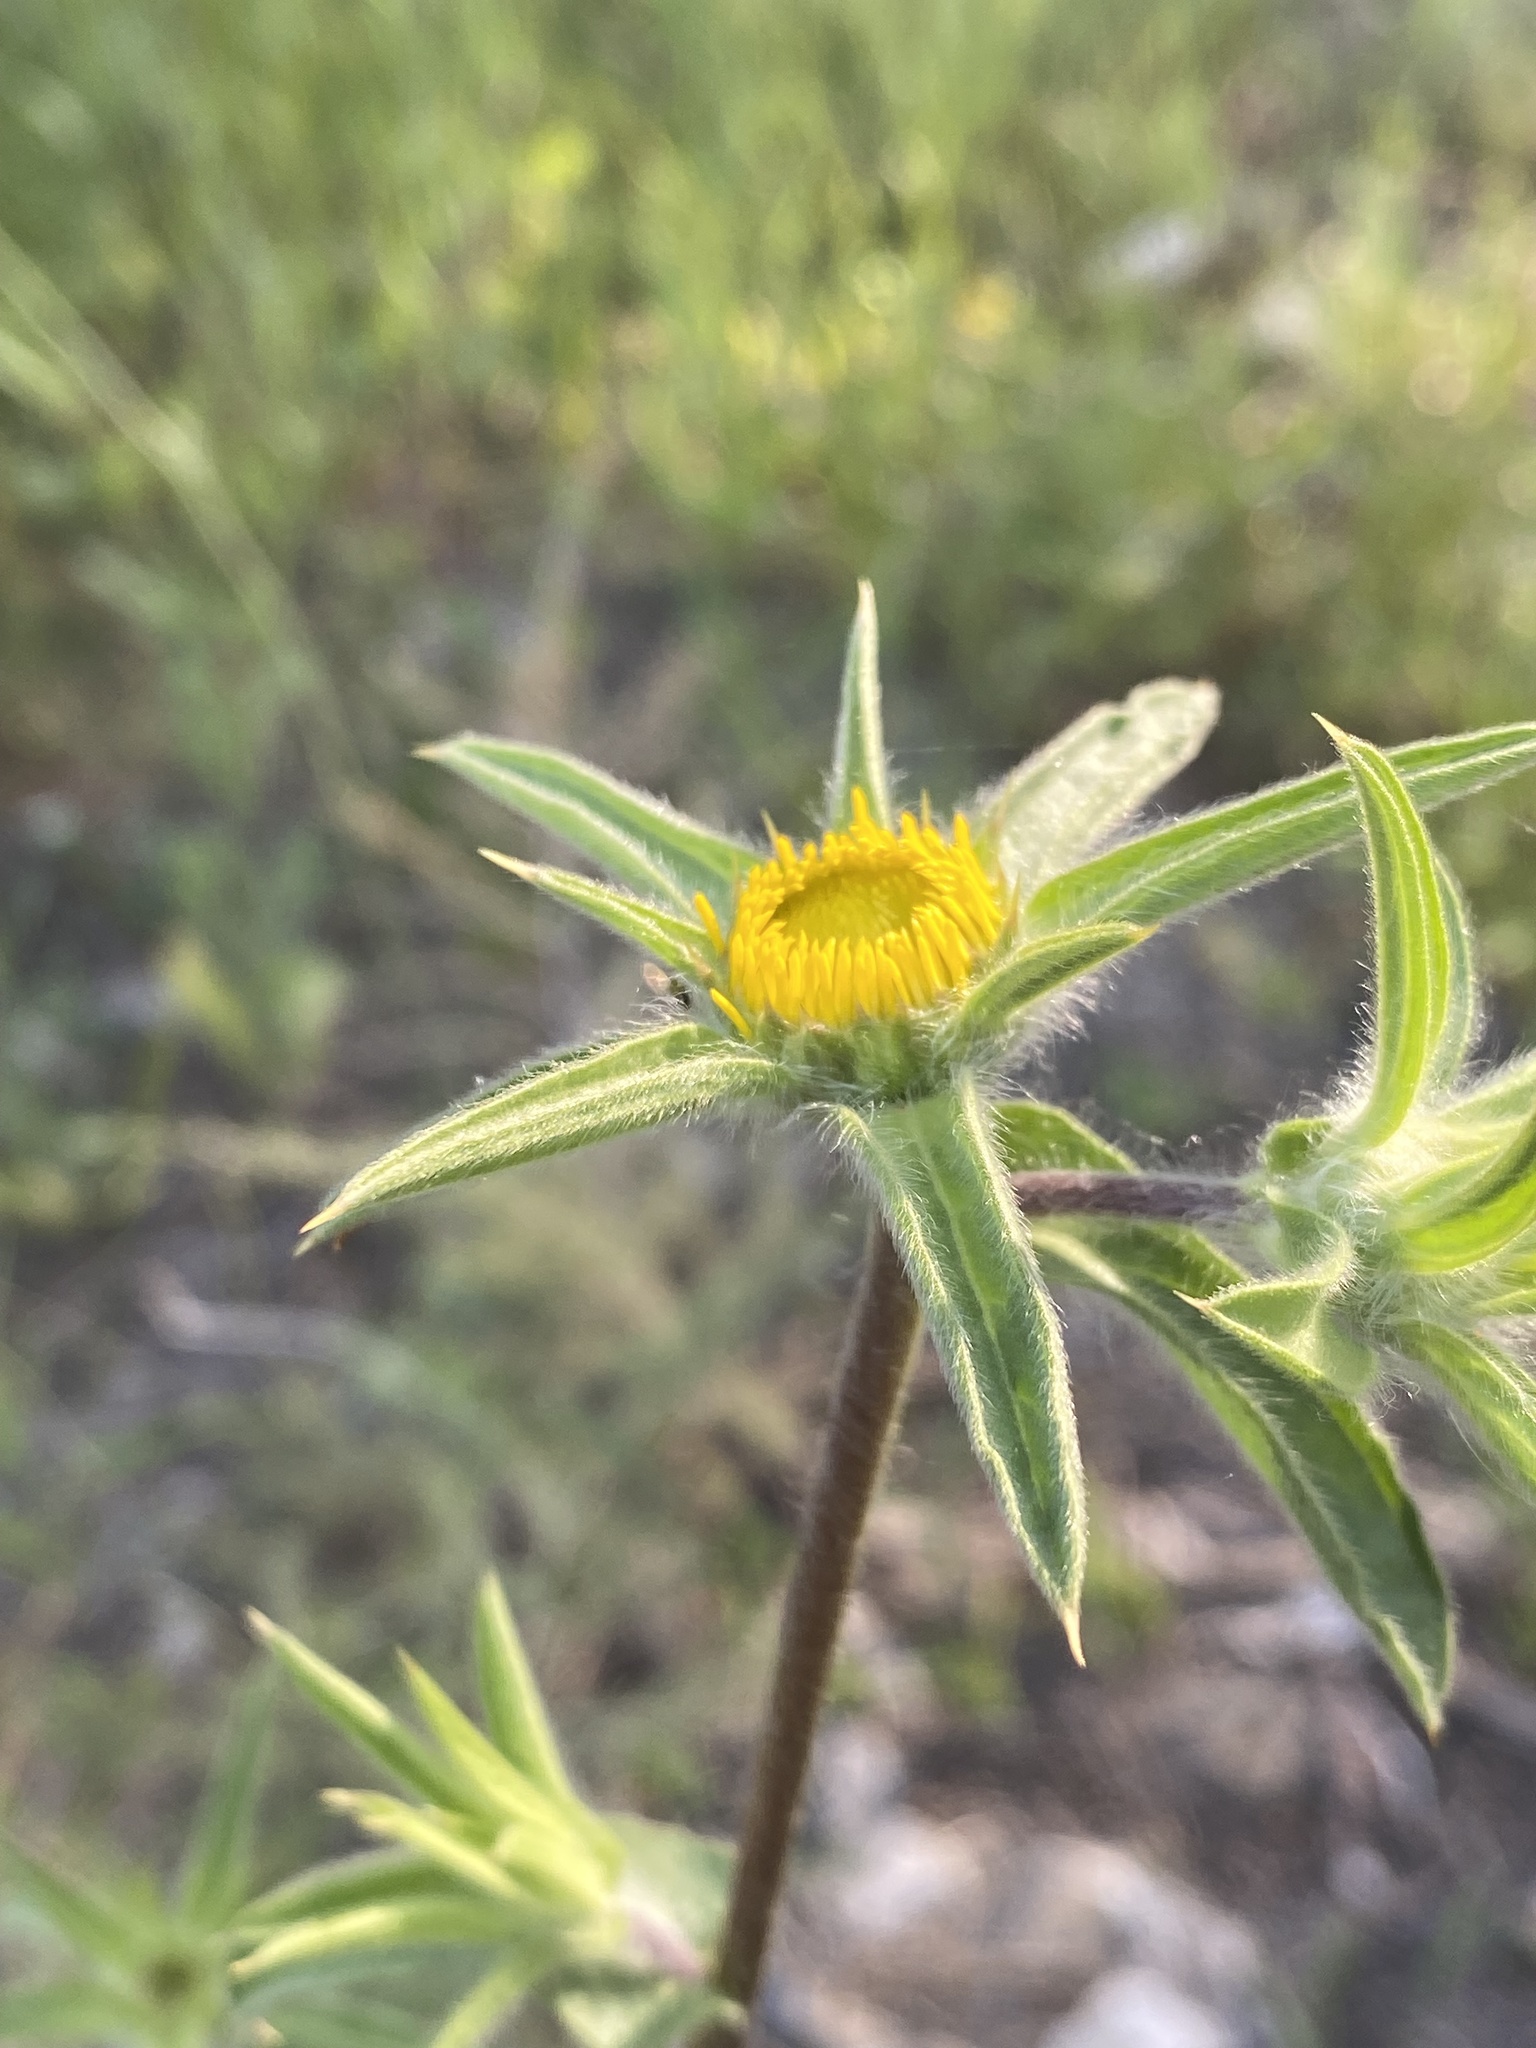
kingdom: Plantae
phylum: Tracheophyta
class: Magnoliopsida
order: Asterales
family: Asteraceae
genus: Pallenis
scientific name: Pallenis spinosa
